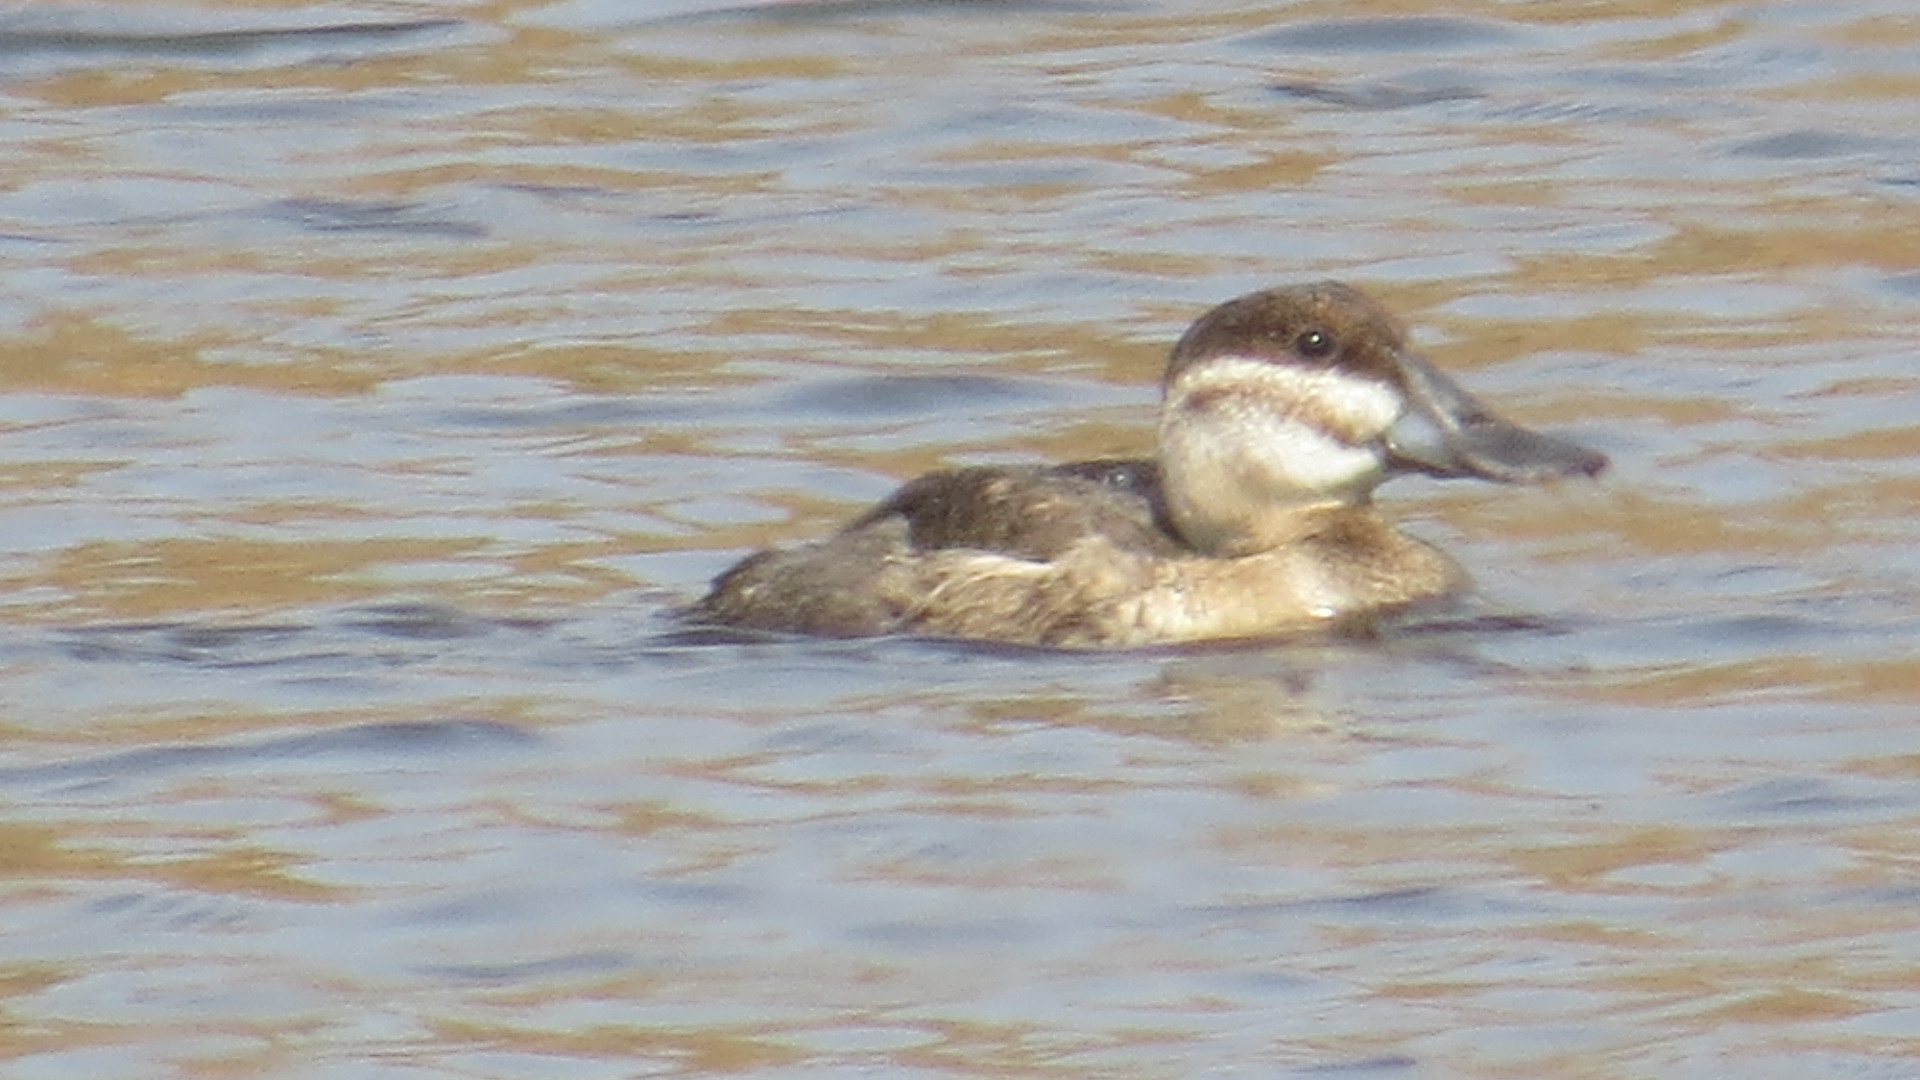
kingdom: Animalia
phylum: Chordata
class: Aves
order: Anseriformes
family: Anatidae
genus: Oxyura
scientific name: Oxyura jamaicensis
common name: Ruddy duck
